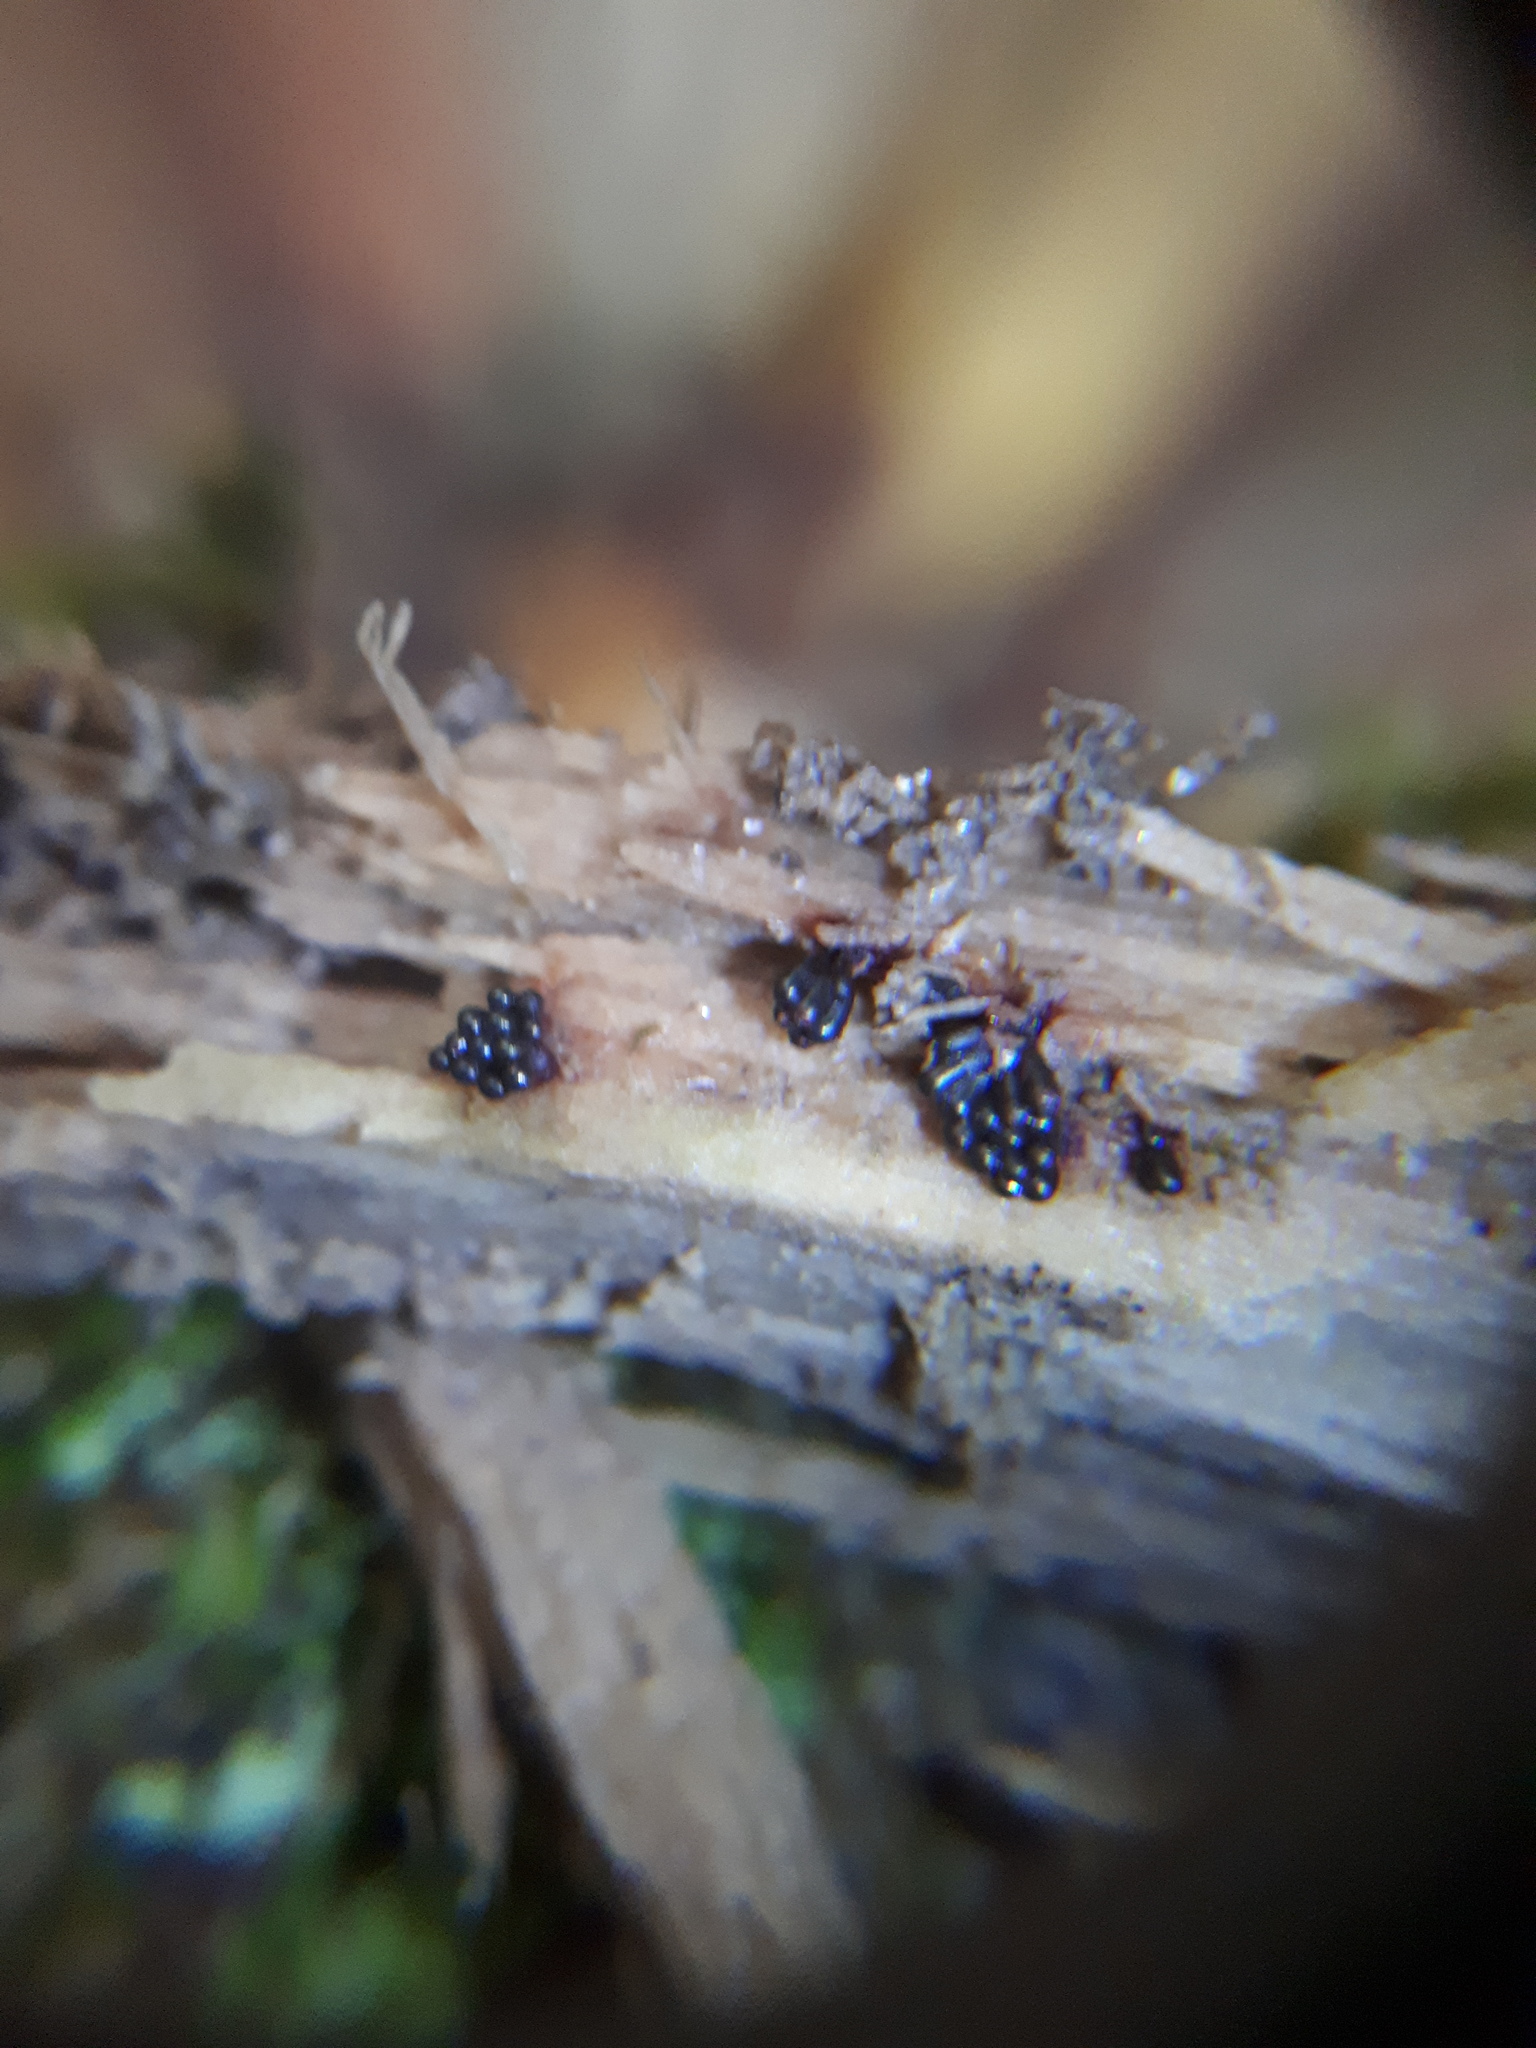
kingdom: Protozoa
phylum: Mycetozoa
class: Myxomycetes
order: Trichiales
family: Trichiaceae
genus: Metatrichia
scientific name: Metatrichia vesparia
